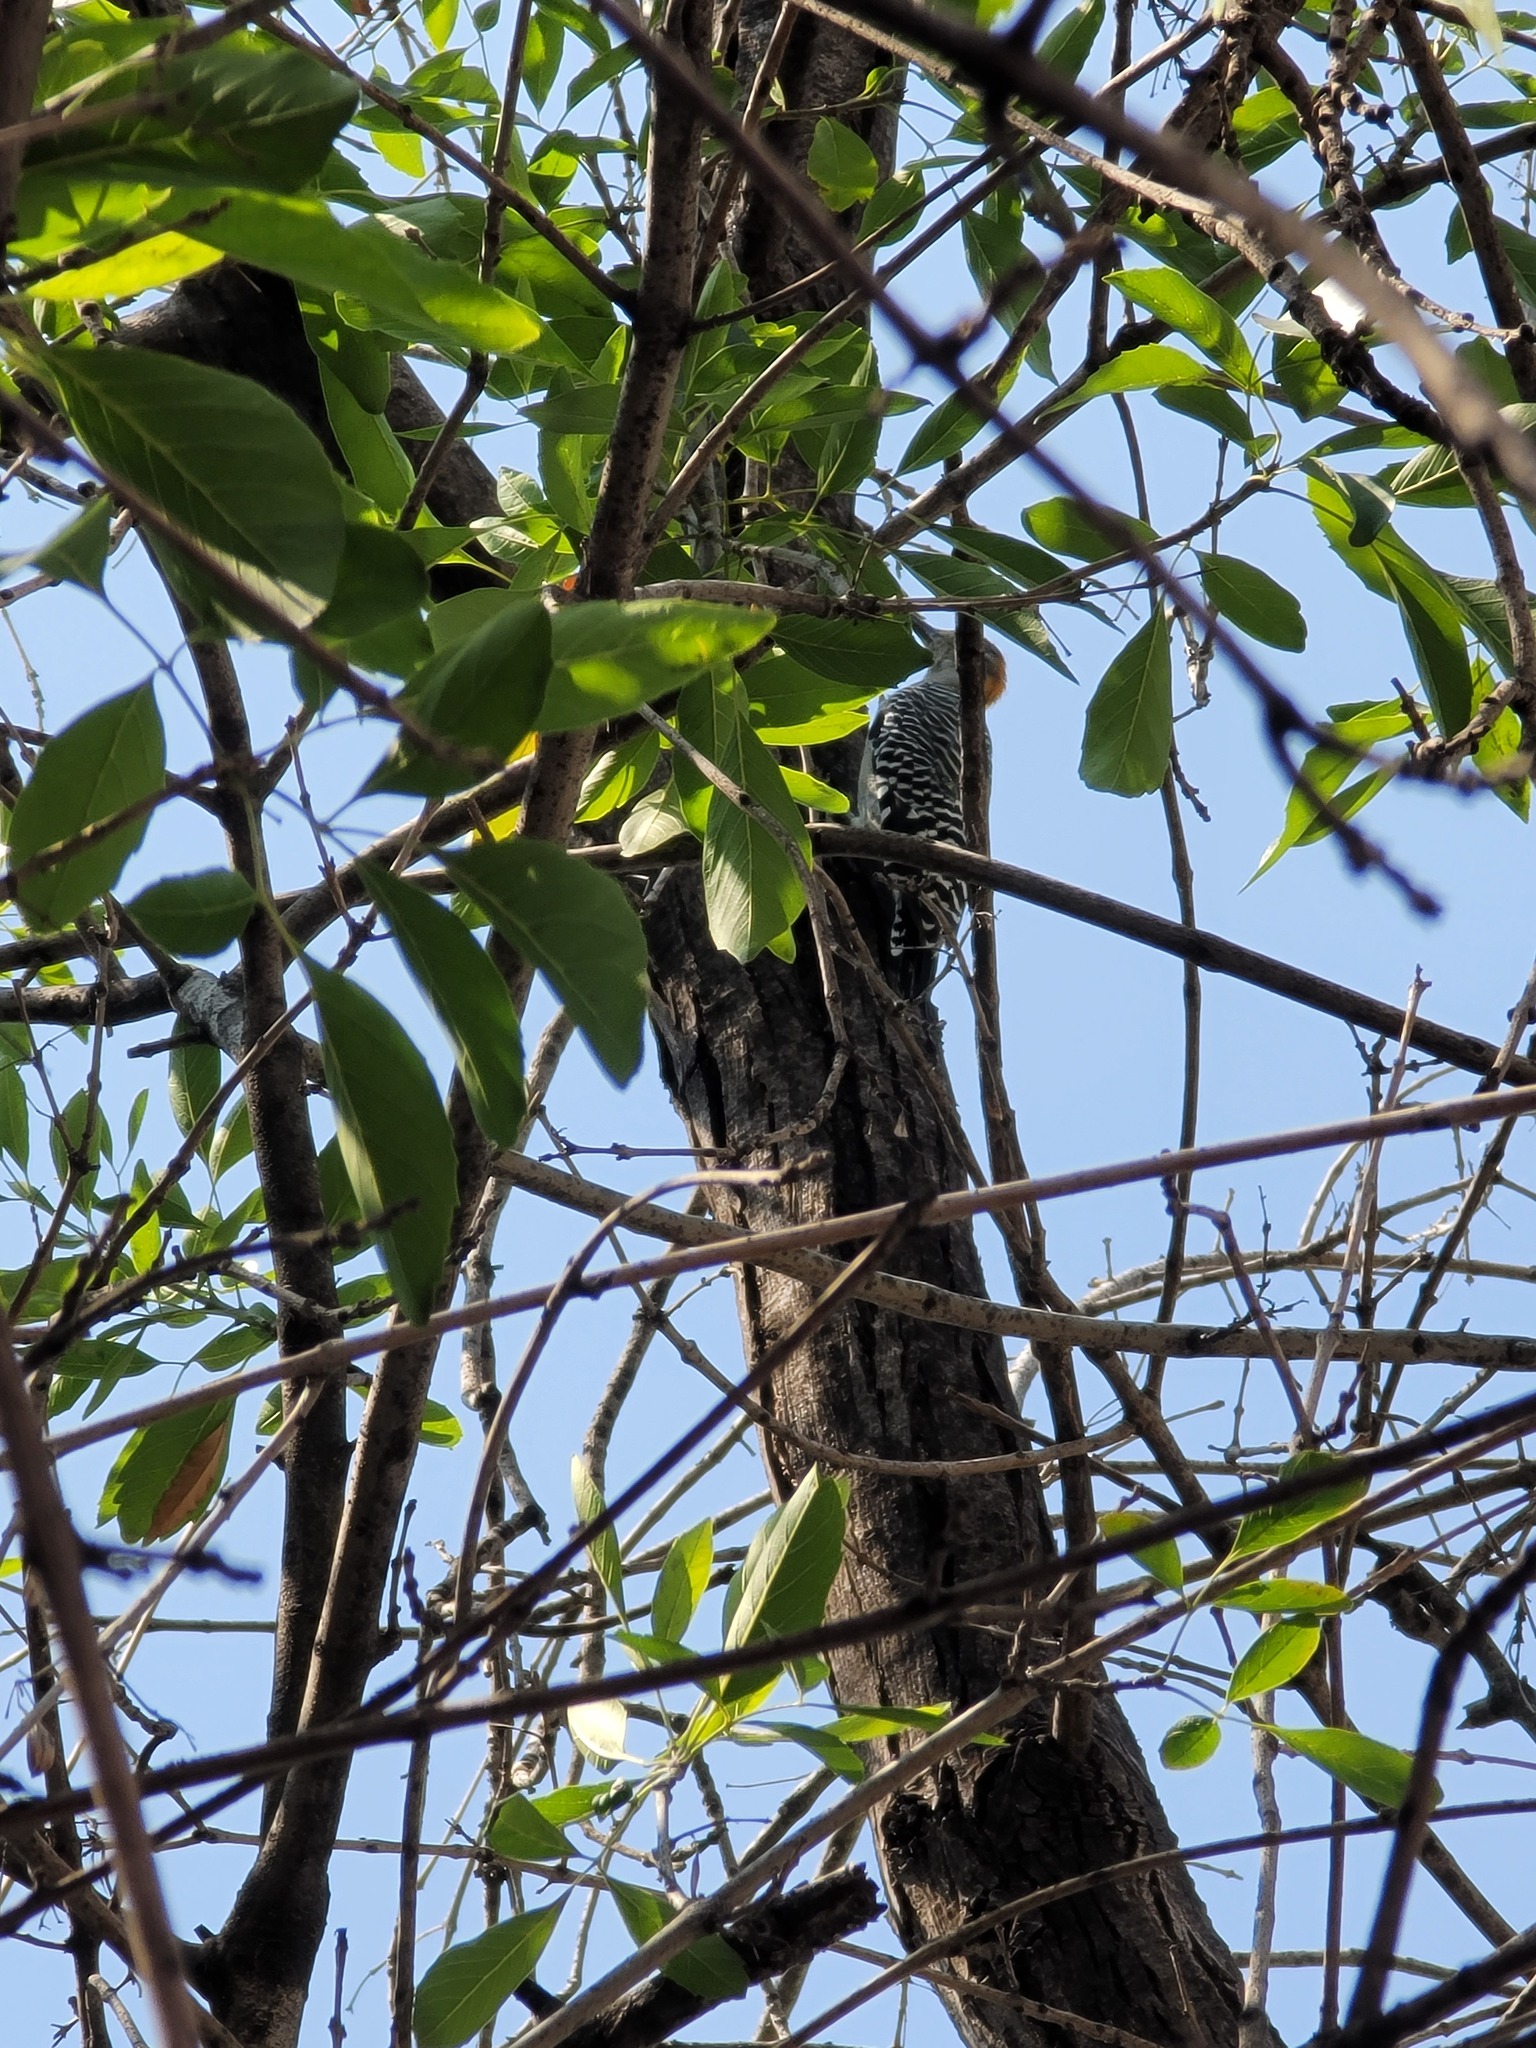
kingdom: Animalia
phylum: Chordata
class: Aves
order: Piciformes
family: Picidae
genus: Melanerpes
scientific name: Melanerpes aurifrons
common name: Golden-fronted woodpecker
